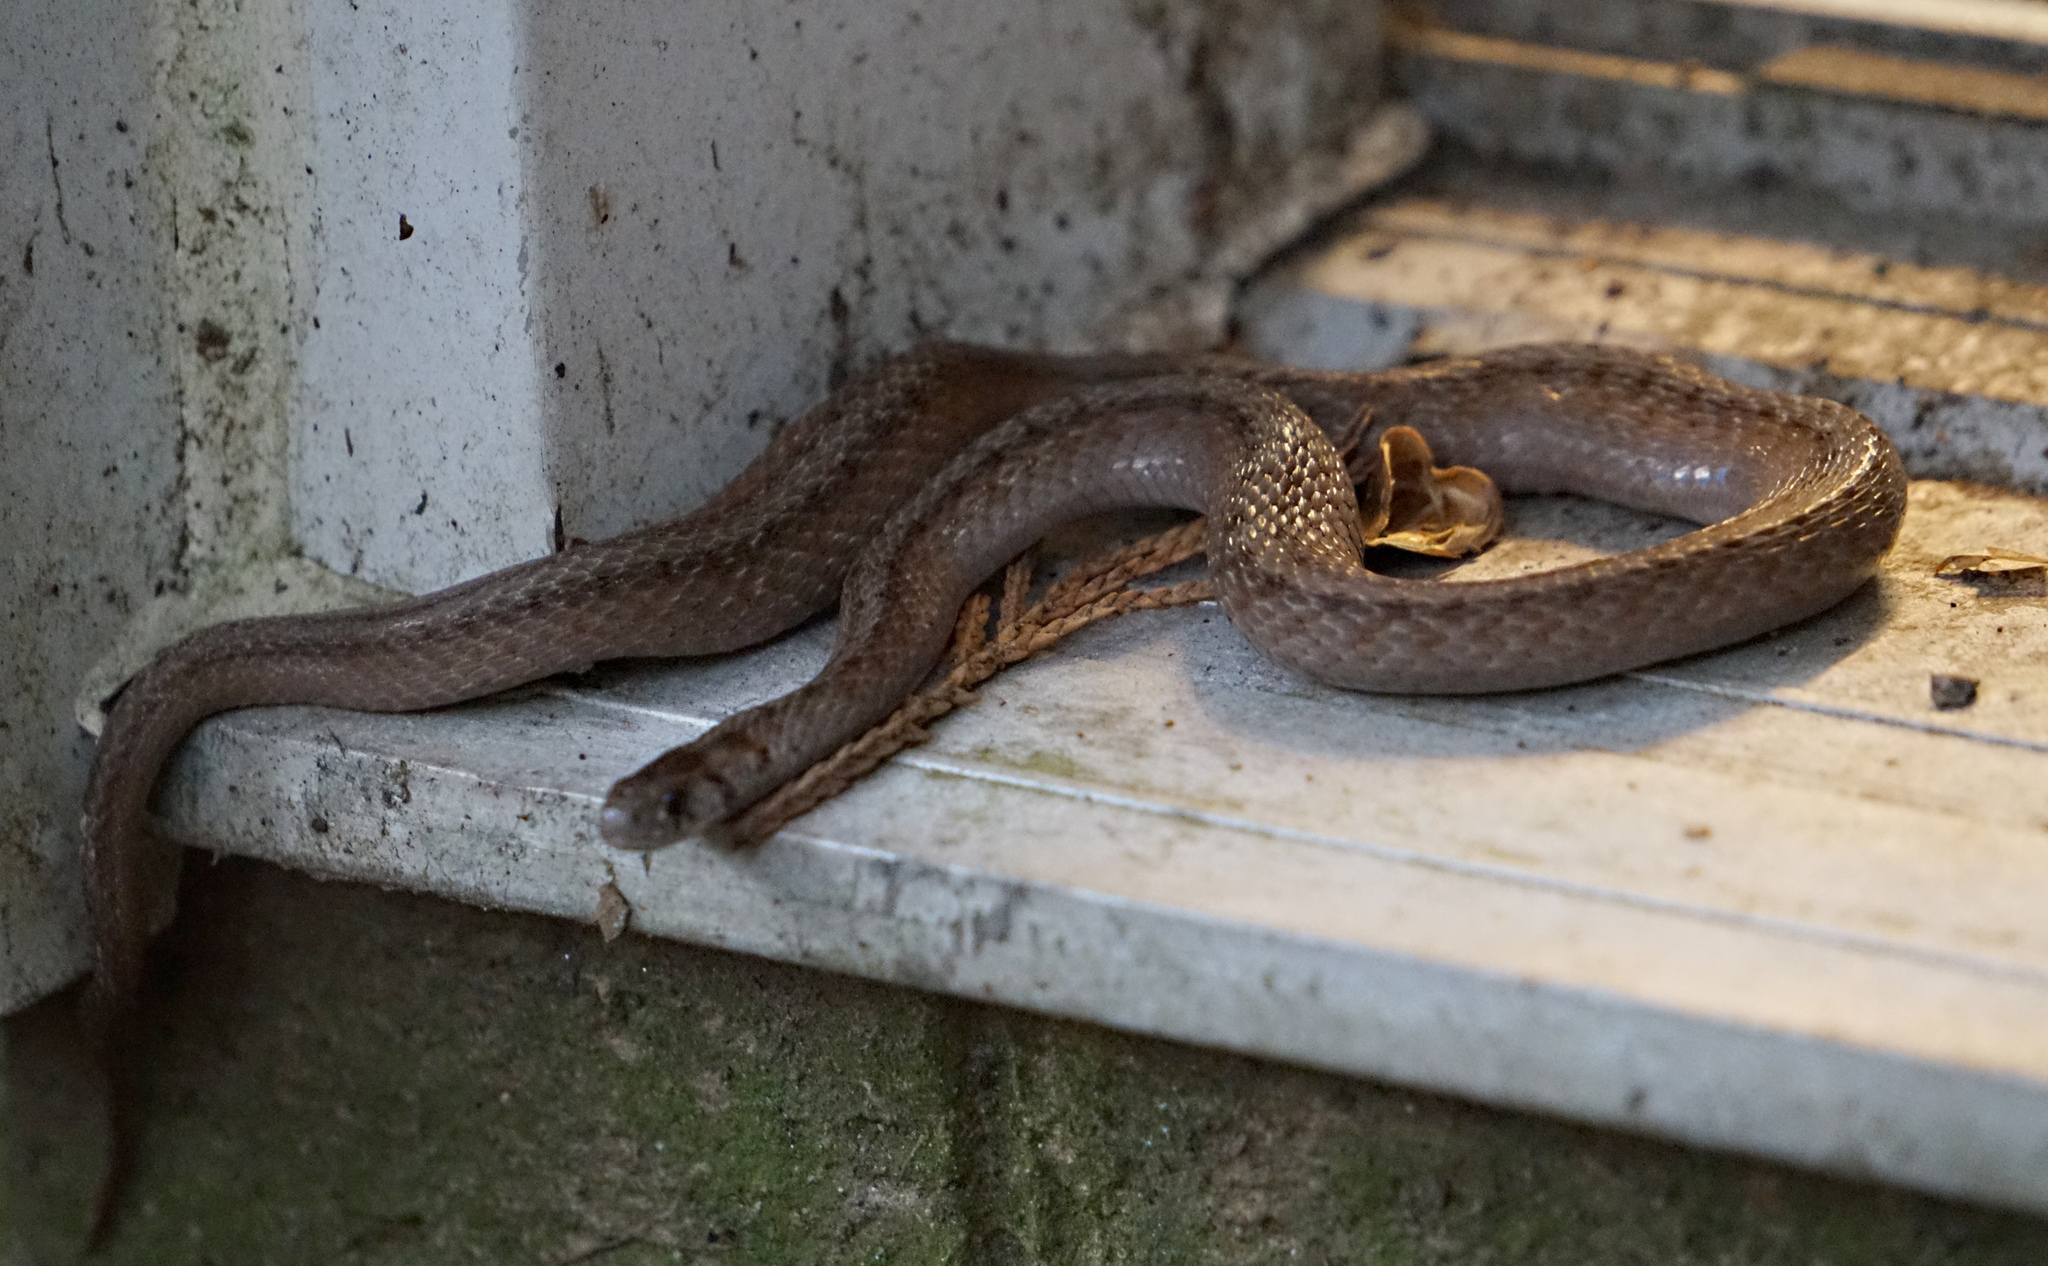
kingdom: Animalia
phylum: Chordata
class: Squamata
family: Colubridae
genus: Storeria
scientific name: Storeria dekayi
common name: (dekay’s) brown snake
